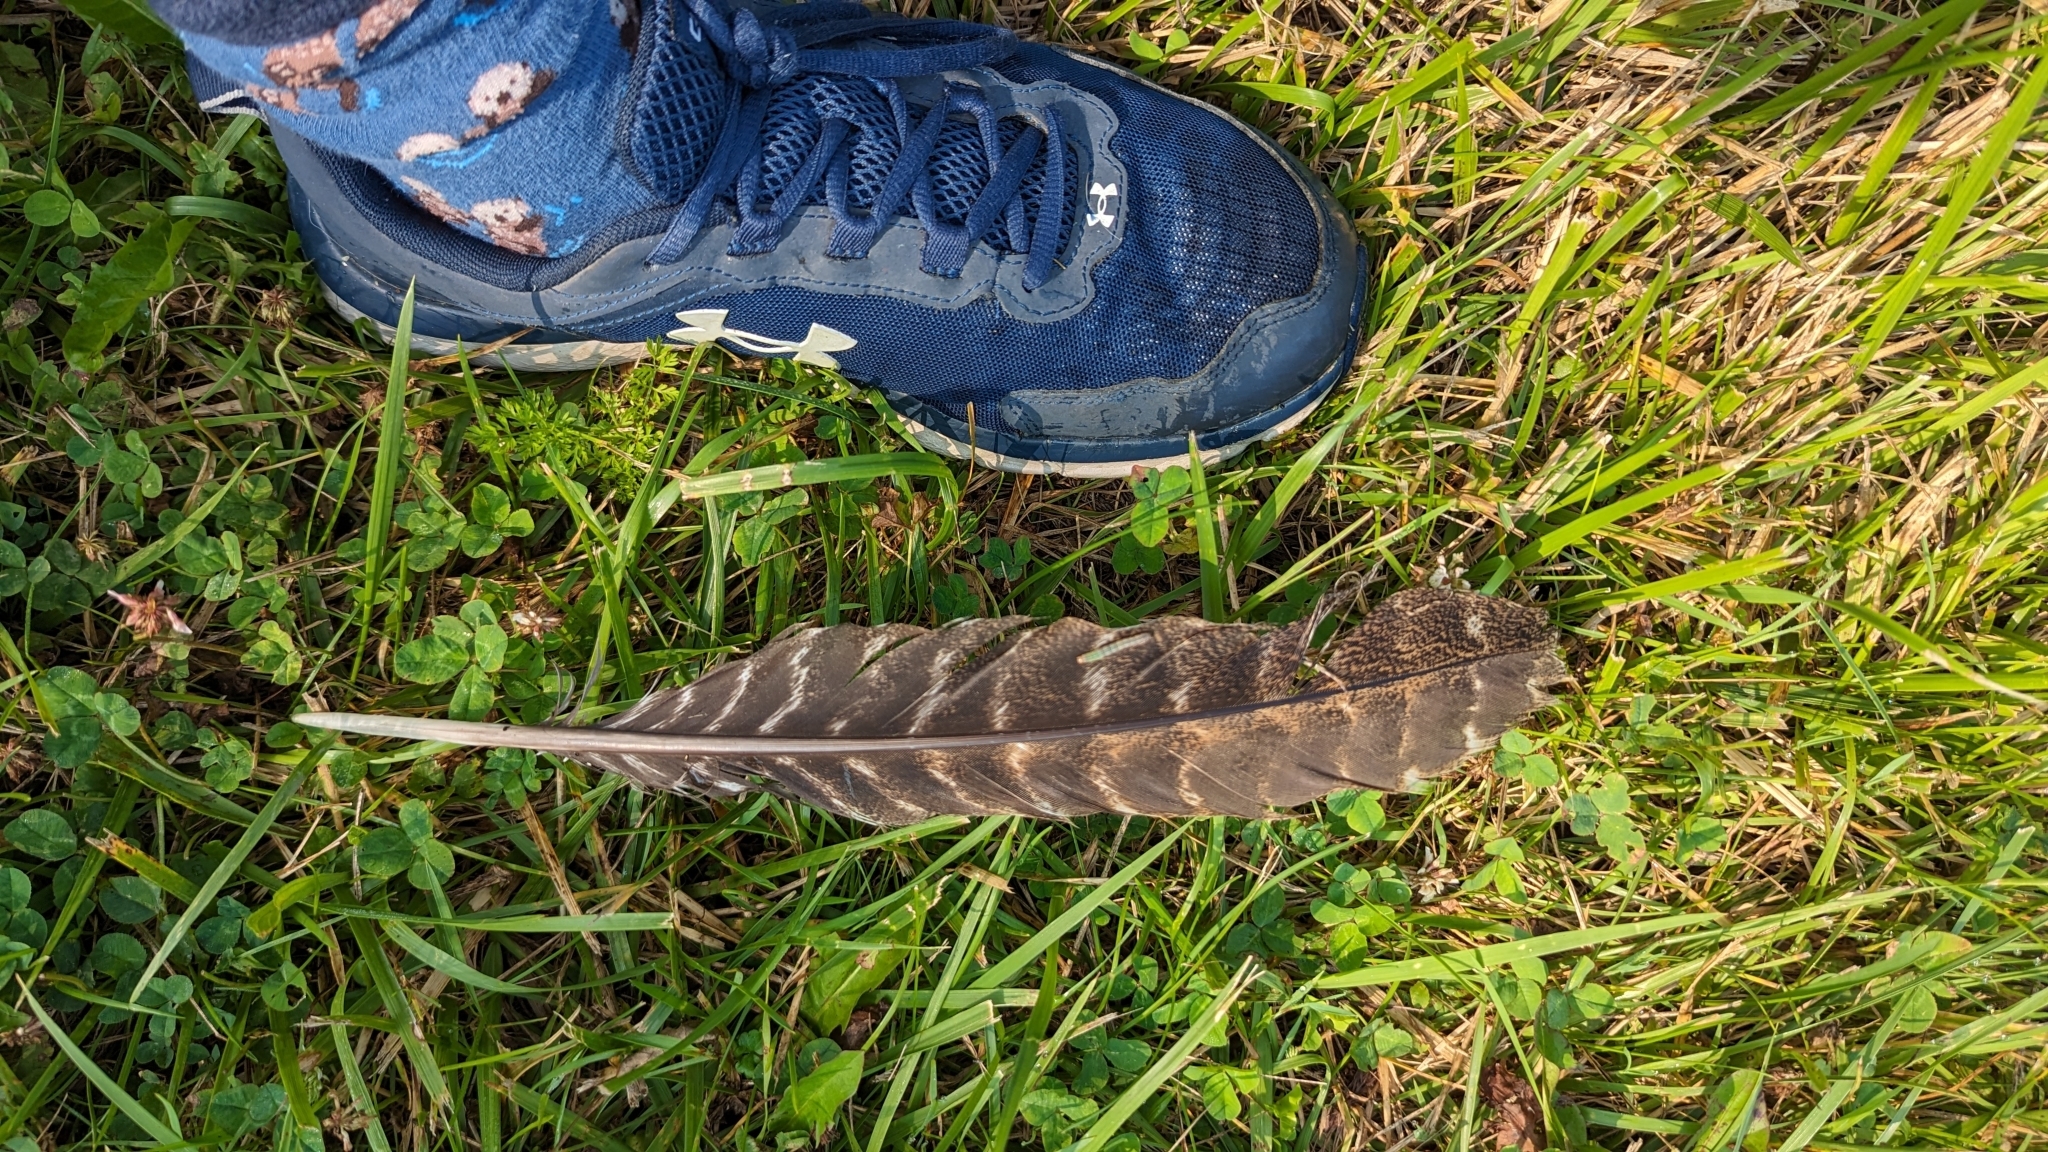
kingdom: Animalia
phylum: Chordata
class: Aves
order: Galliformes
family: Phasianidae
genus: Meleagris
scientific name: Meleagris gallopavo
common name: Wild turkey
